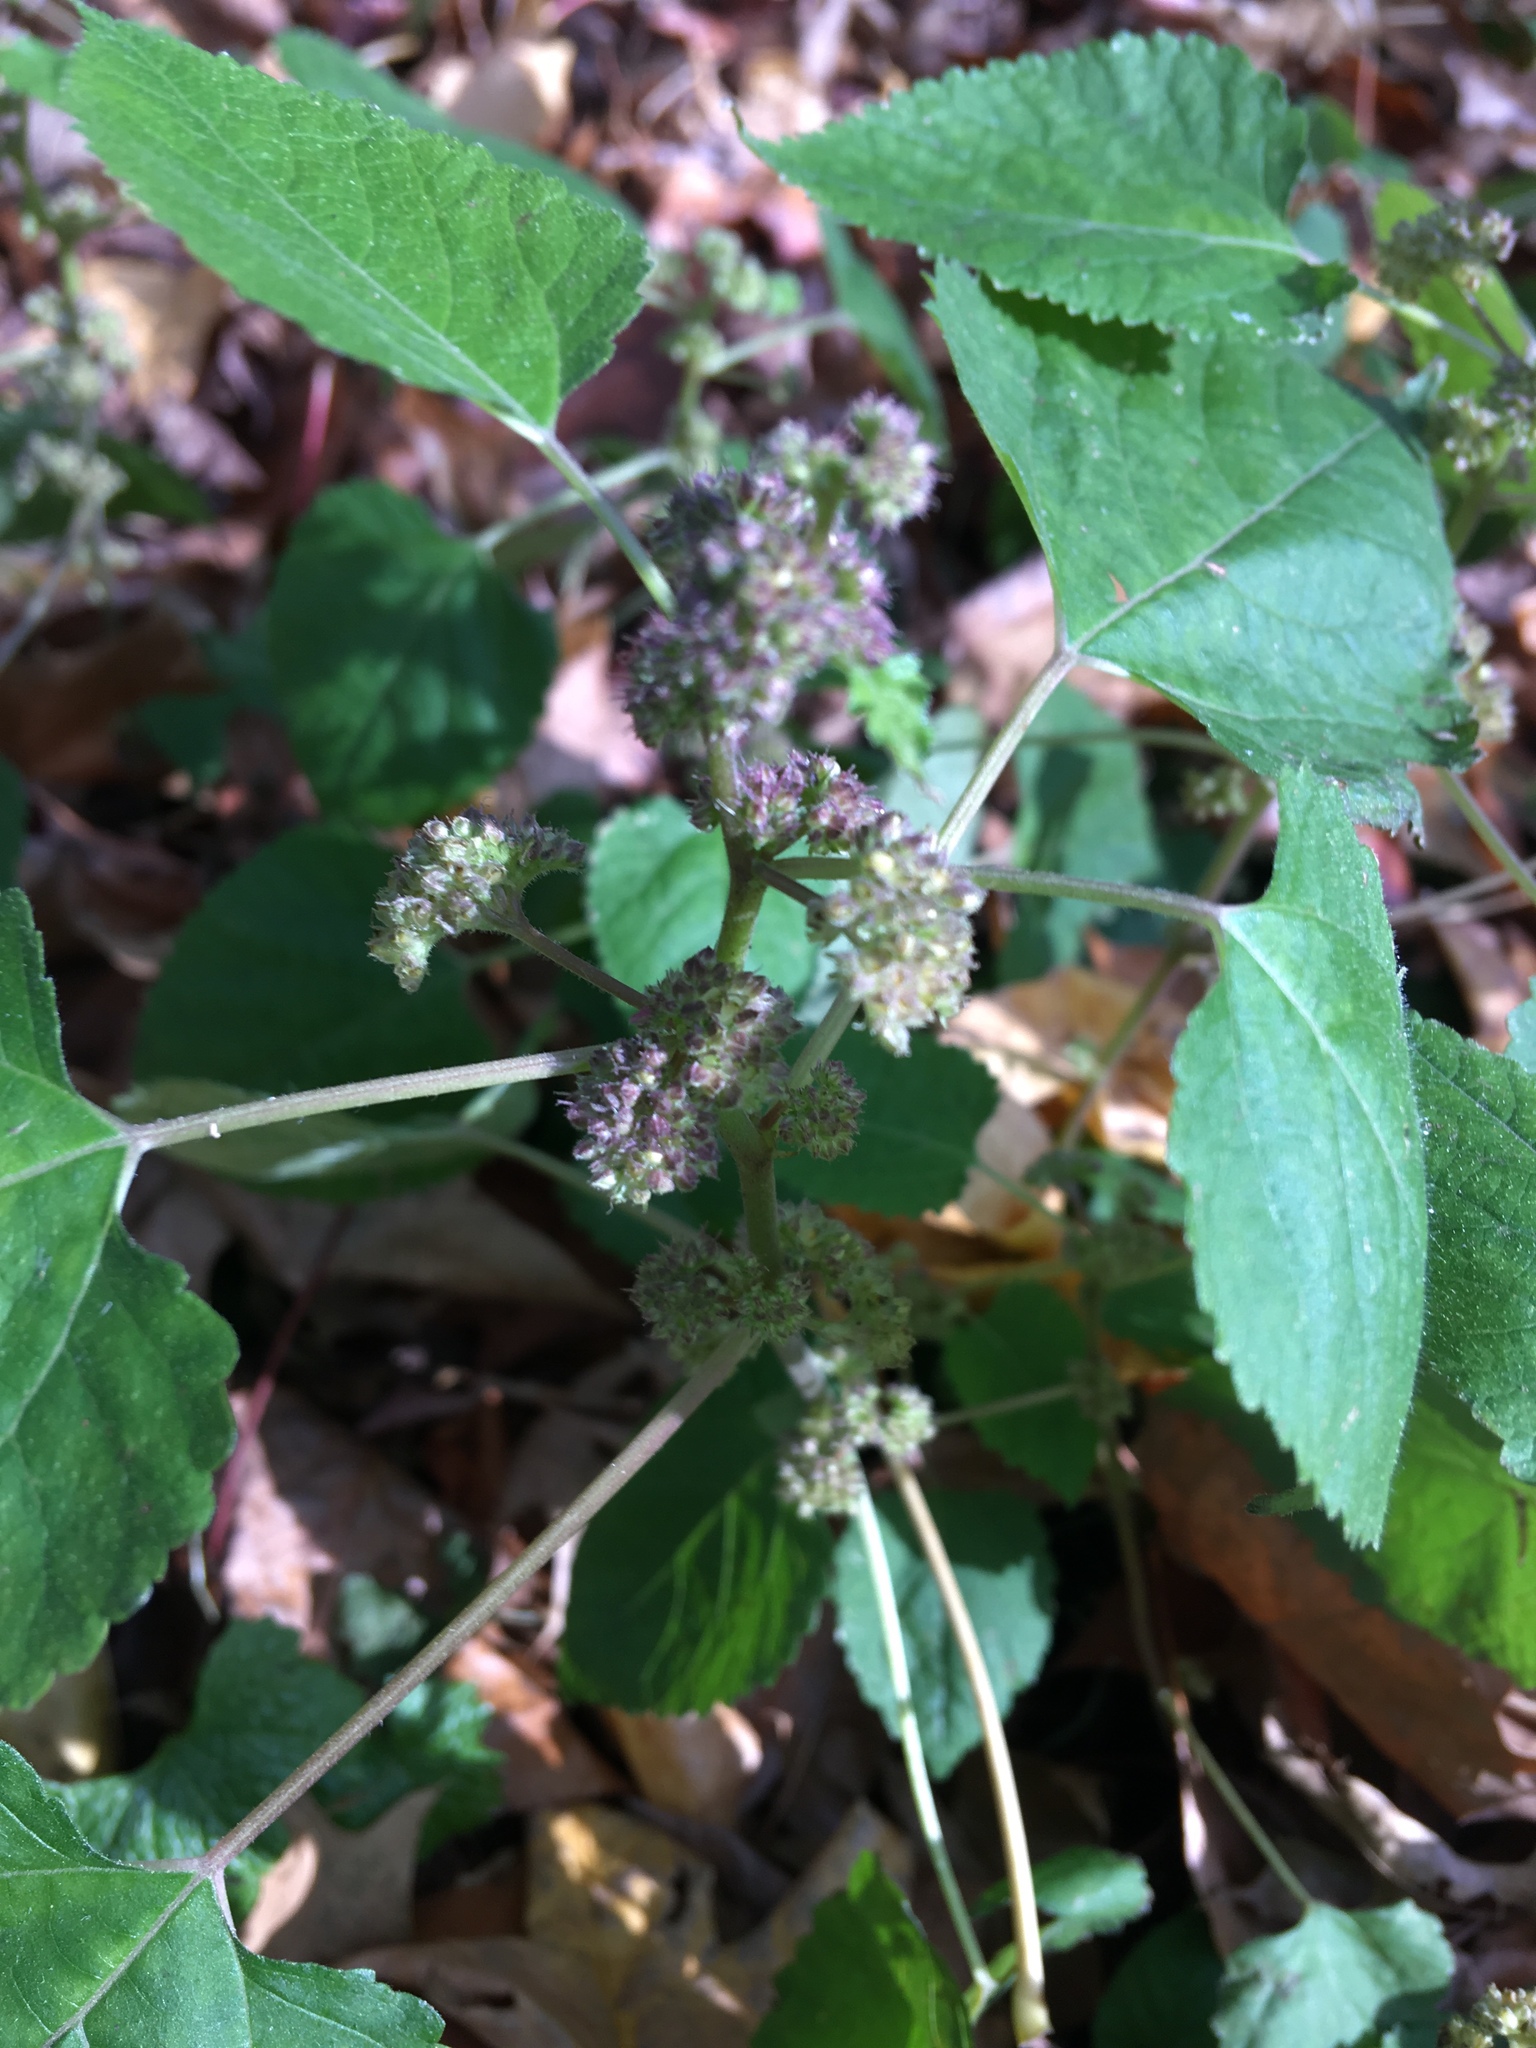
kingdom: Plantae
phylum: Tracheophyta
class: Magnoliopsida
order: Rosales
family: Moraceae
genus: Fatoua
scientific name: Fatoua villosa
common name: Hairy crabweed
